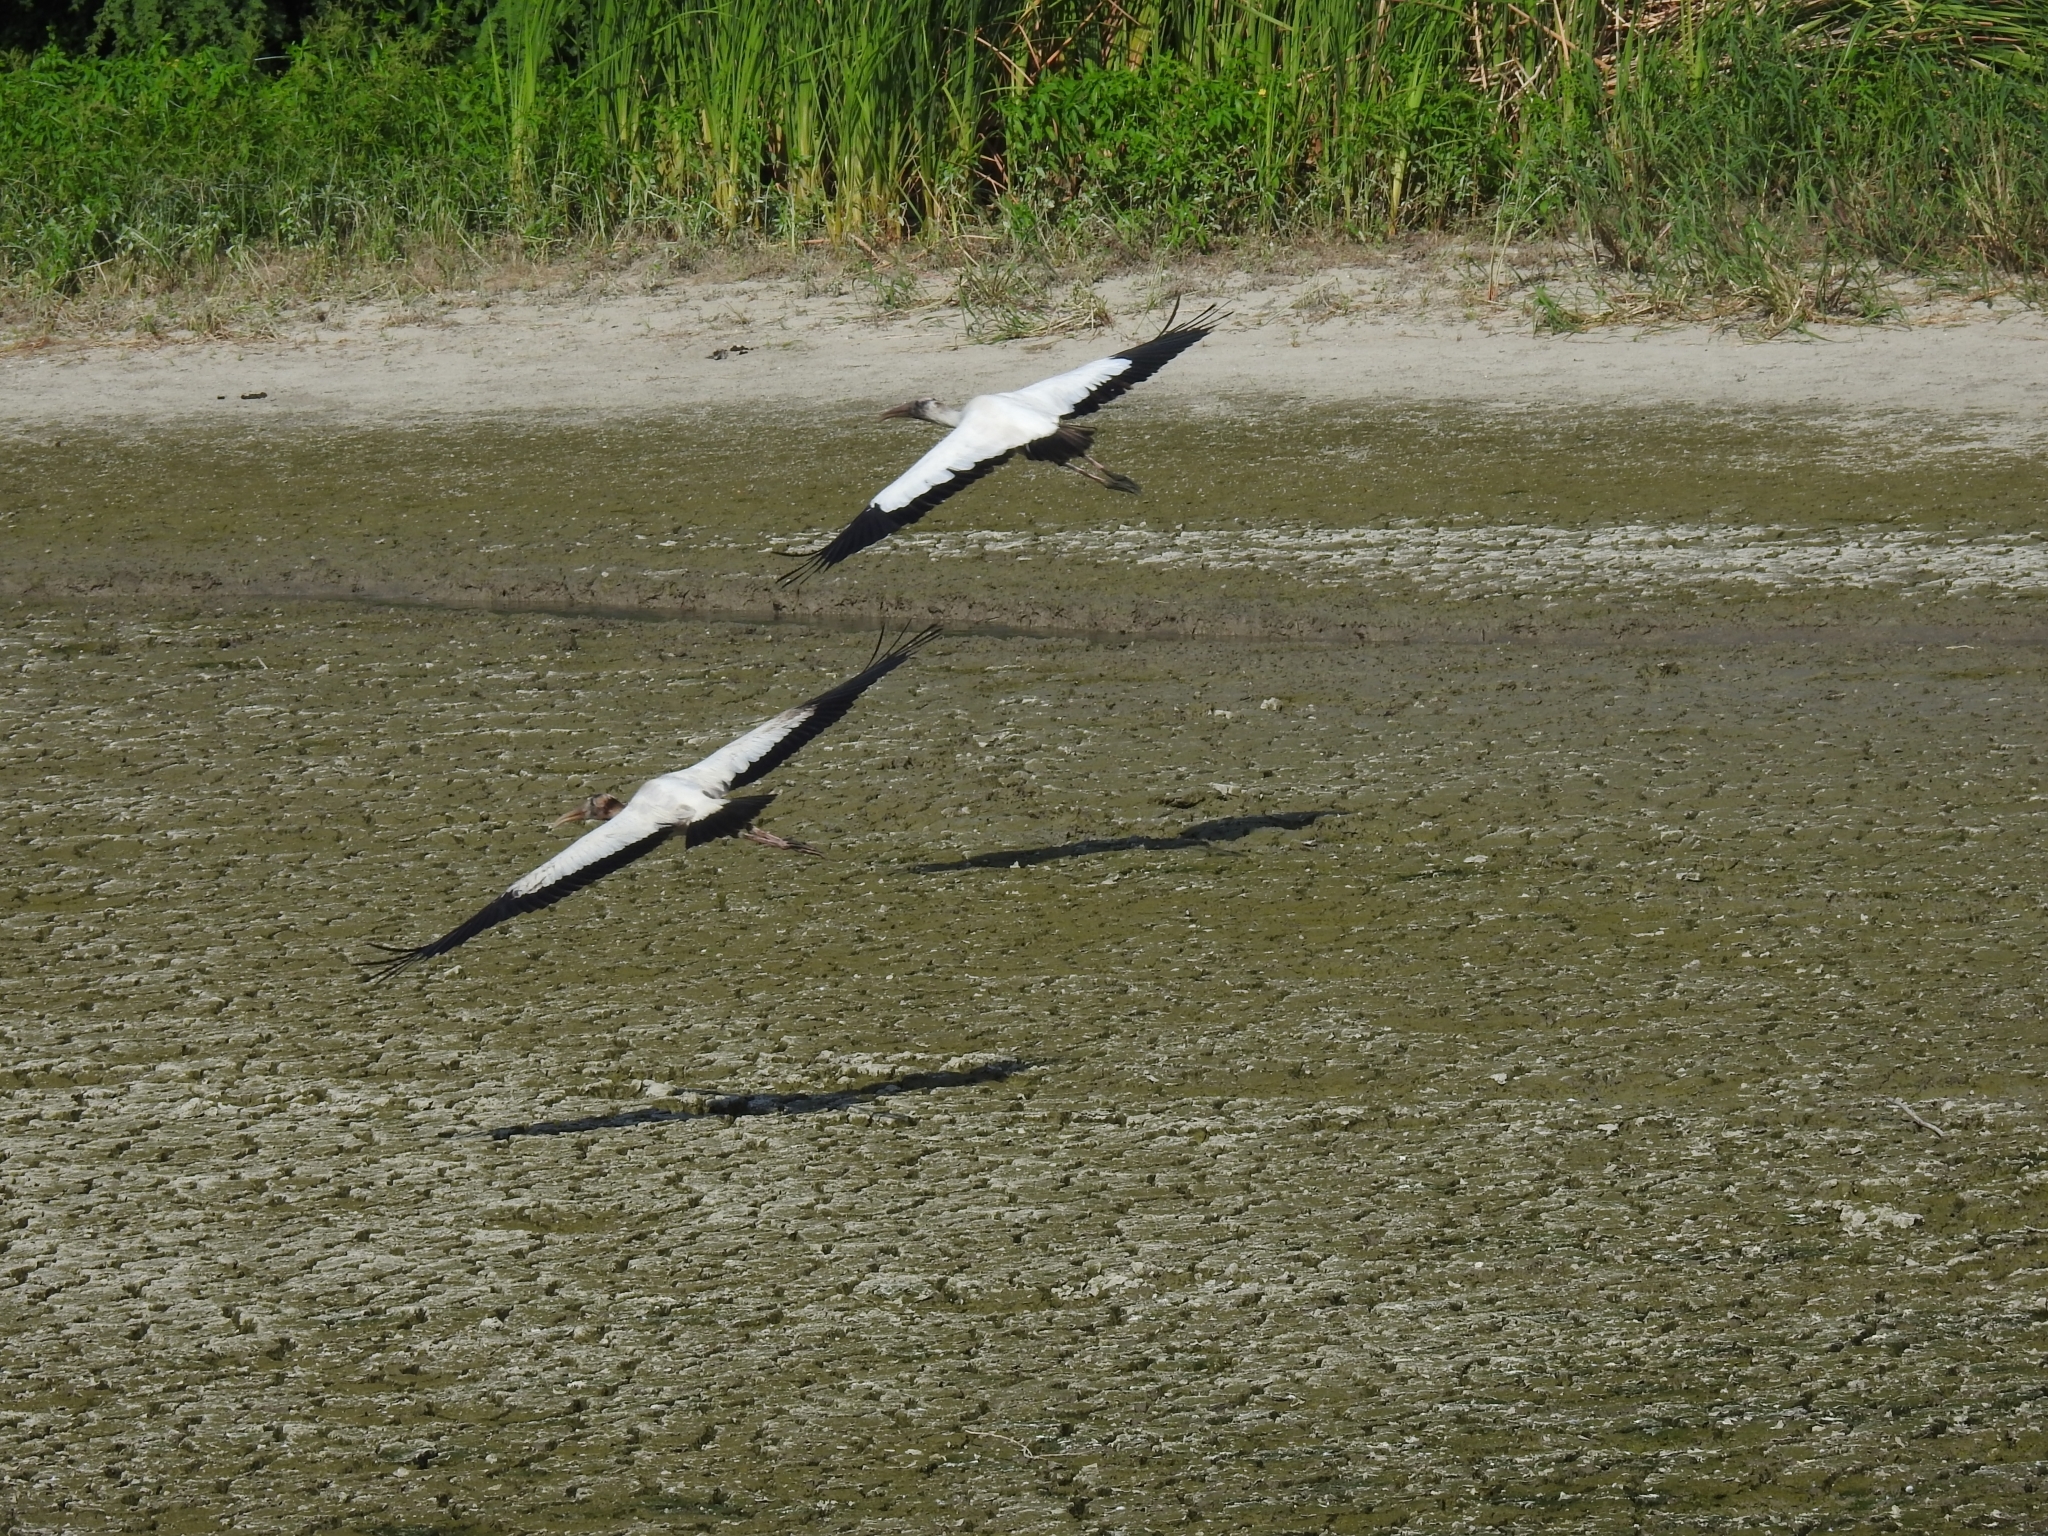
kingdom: Animalia
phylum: Chordata
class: Aves
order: Ciconiiformes
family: Ciconiidae
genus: Mycteria
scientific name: Mycteria americana
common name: Wood stork
